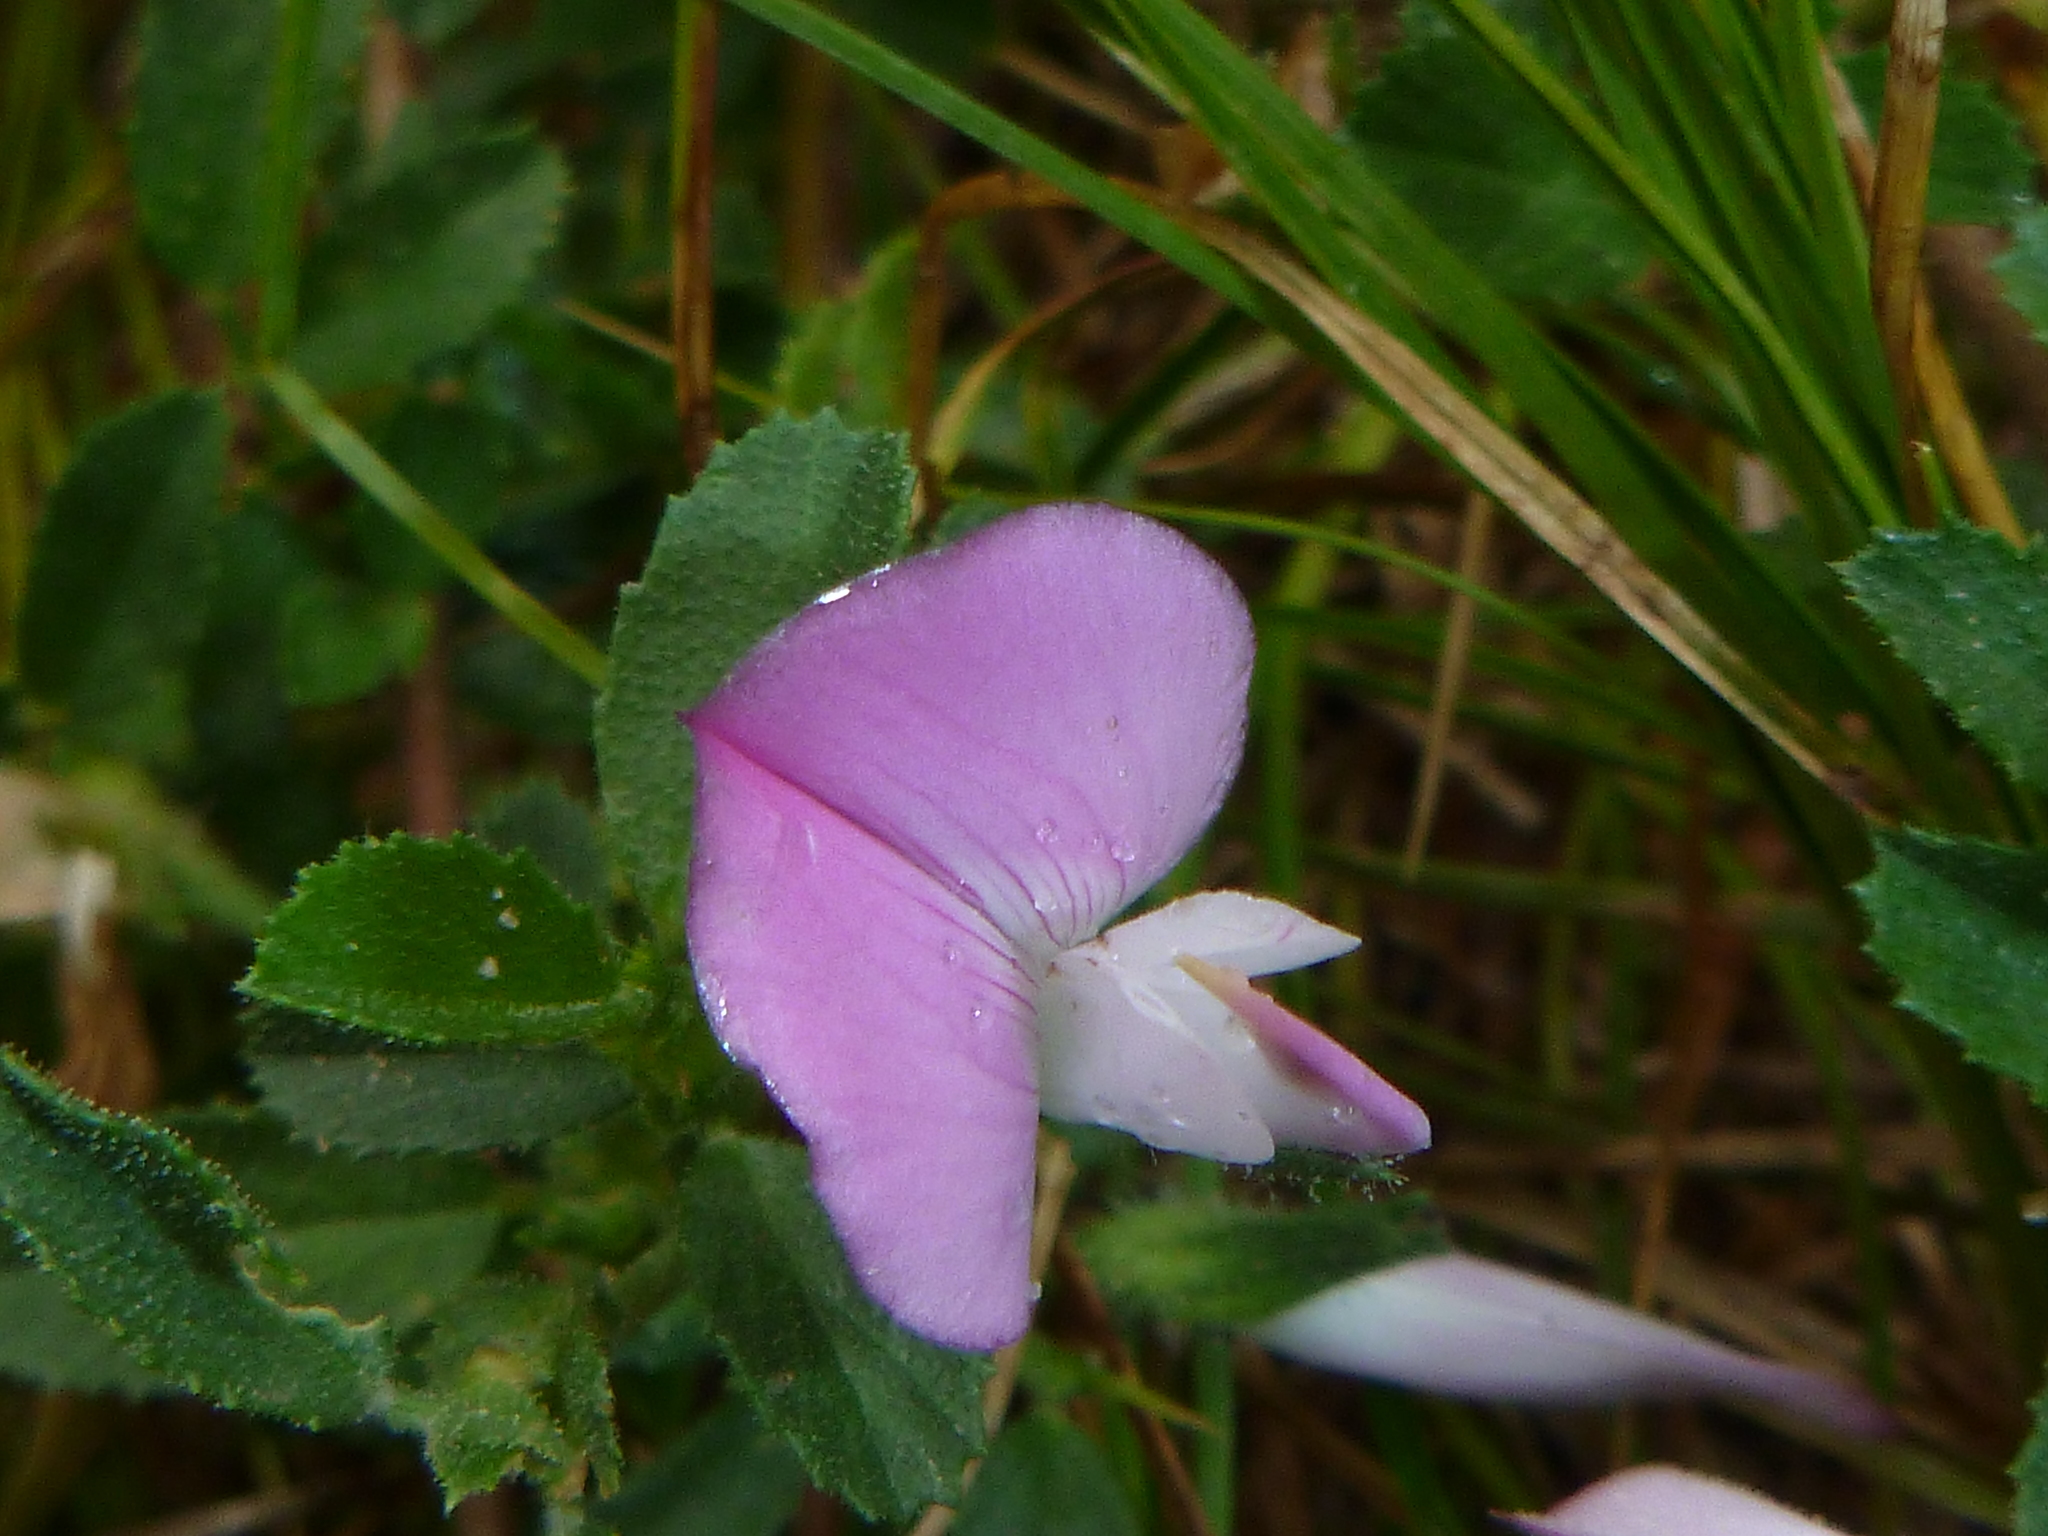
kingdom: Plantae
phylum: Tracheophyta
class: Magnoliopsida
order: Fabales
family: Fabaceae
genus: Ononis
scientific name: Ononis spinosa
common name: Spiny restharrow
